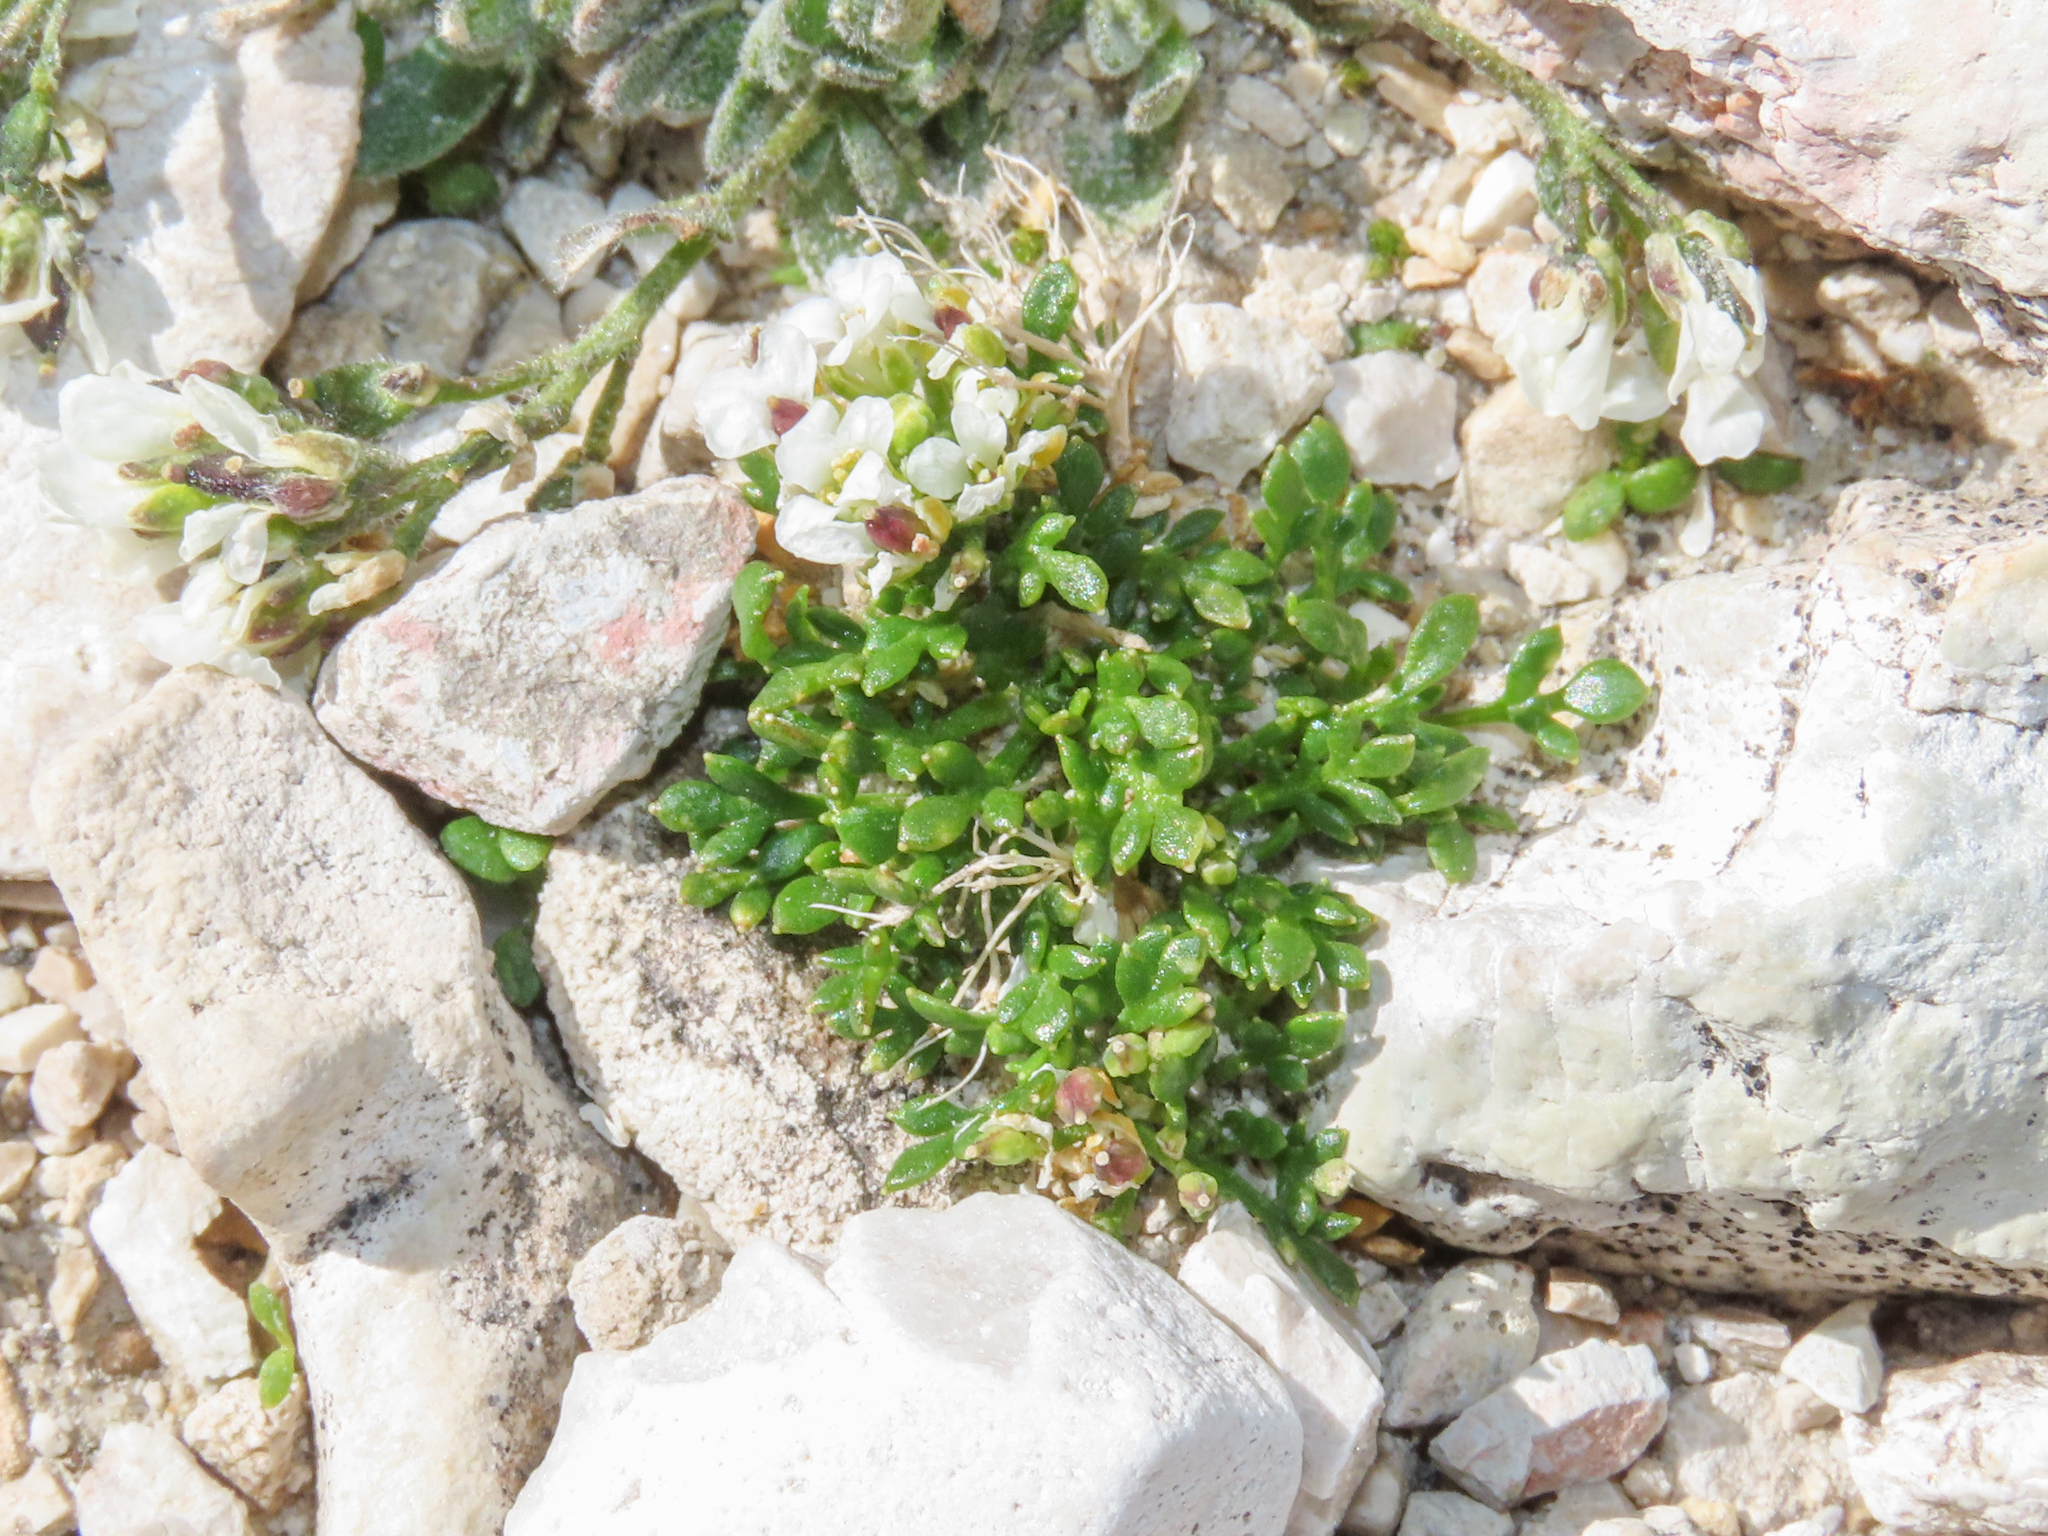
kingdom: Plantae
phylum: Tracheophyta
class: Magnoliopsida
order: Brassicales
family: Brassicaceae
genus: Hornungia
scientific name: Hornungia alpina
